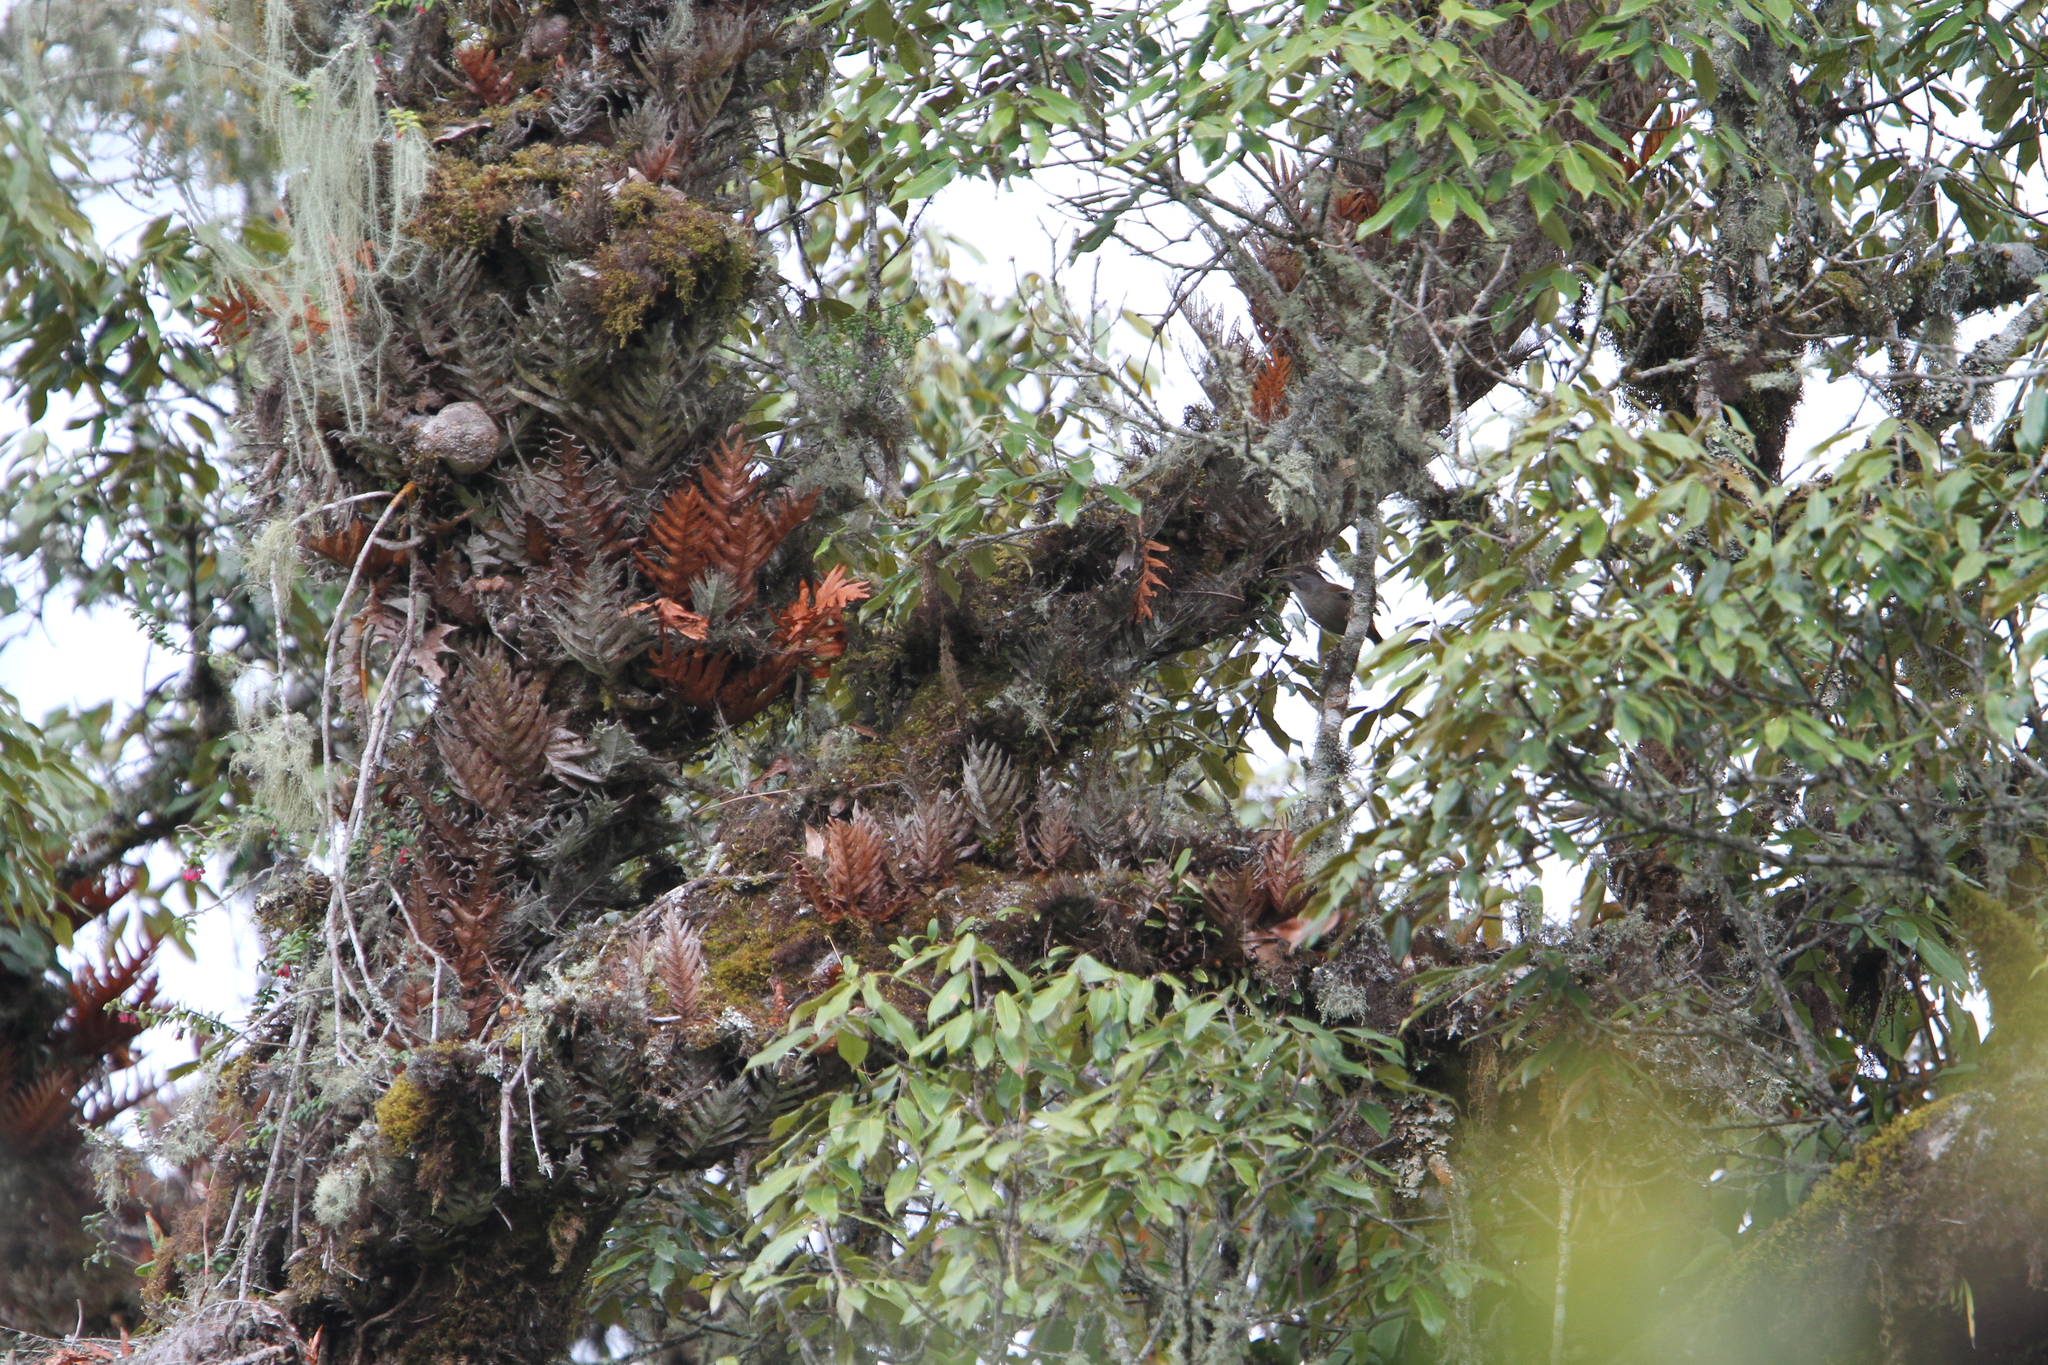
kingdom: Animalia
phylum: Chordata
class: Aves
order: Passeriformes
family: Leiothrichidae
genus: Actinodura
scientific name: Actinodura waldeni
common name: Streak-throated barwing
